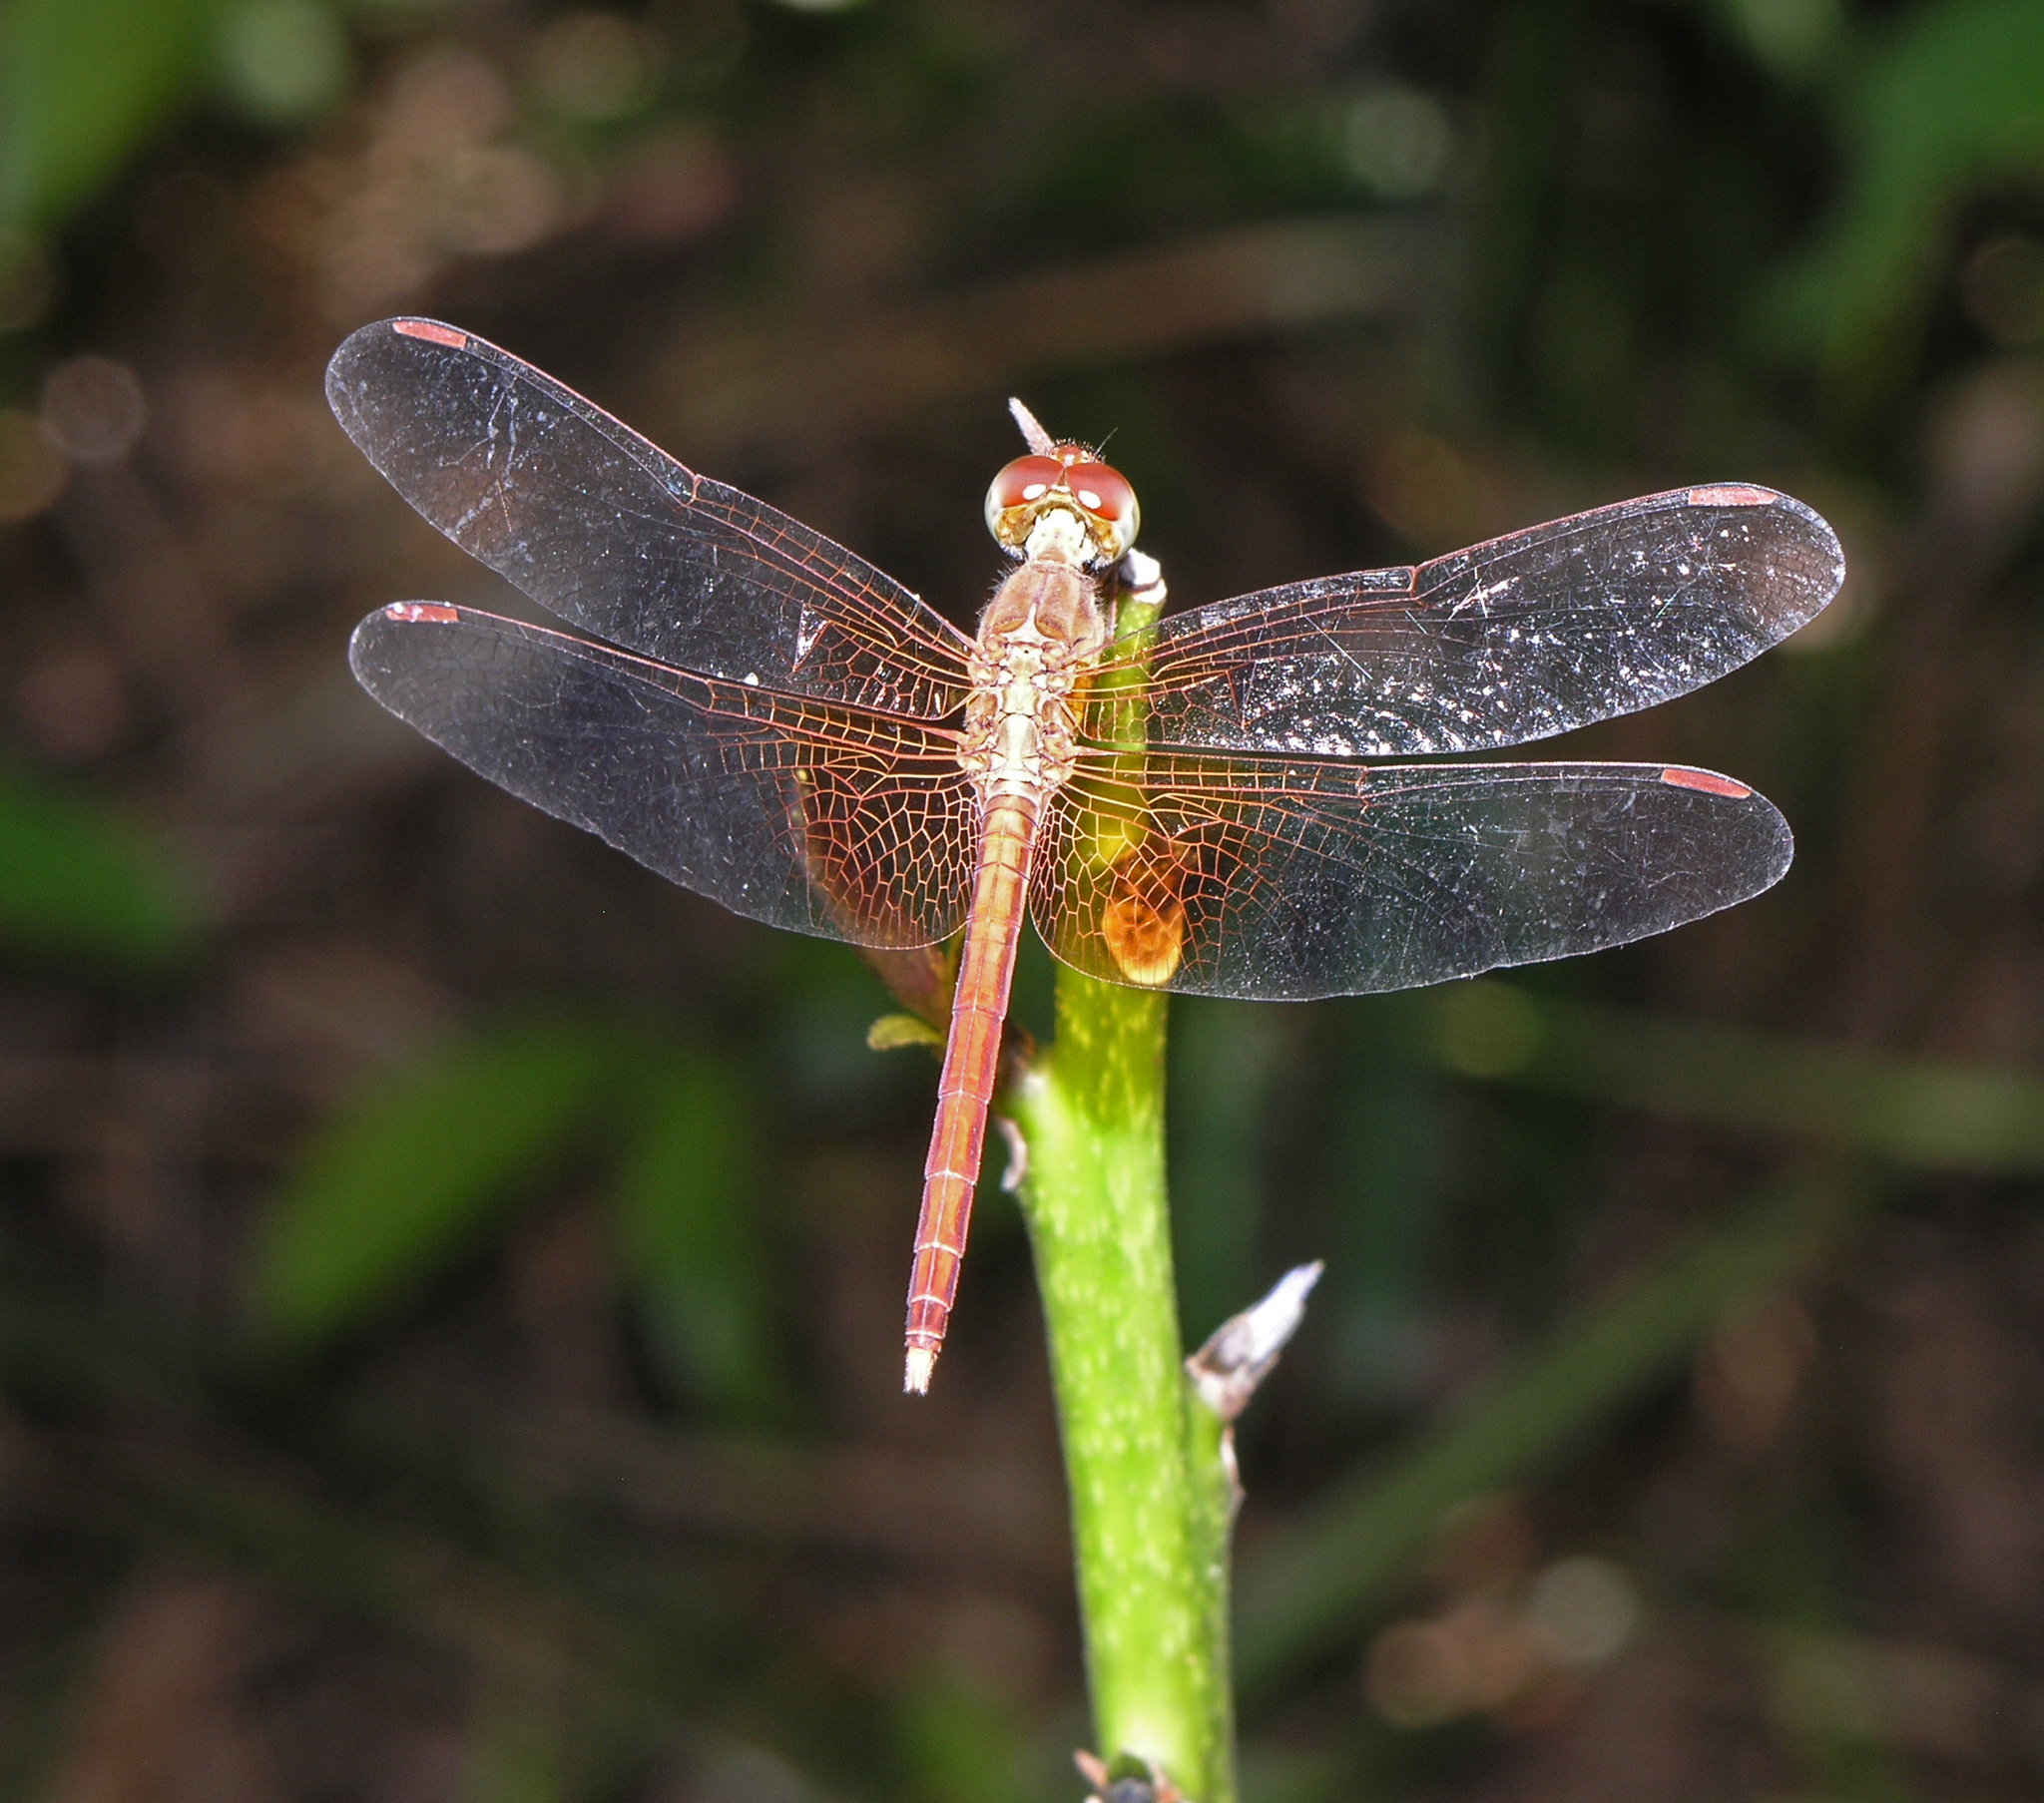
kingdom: Animalia
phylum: Arthropoda
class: Insecta
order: Odonata
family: Libellulidae
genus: Neurothemis
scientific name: Neurothemis intermedia
